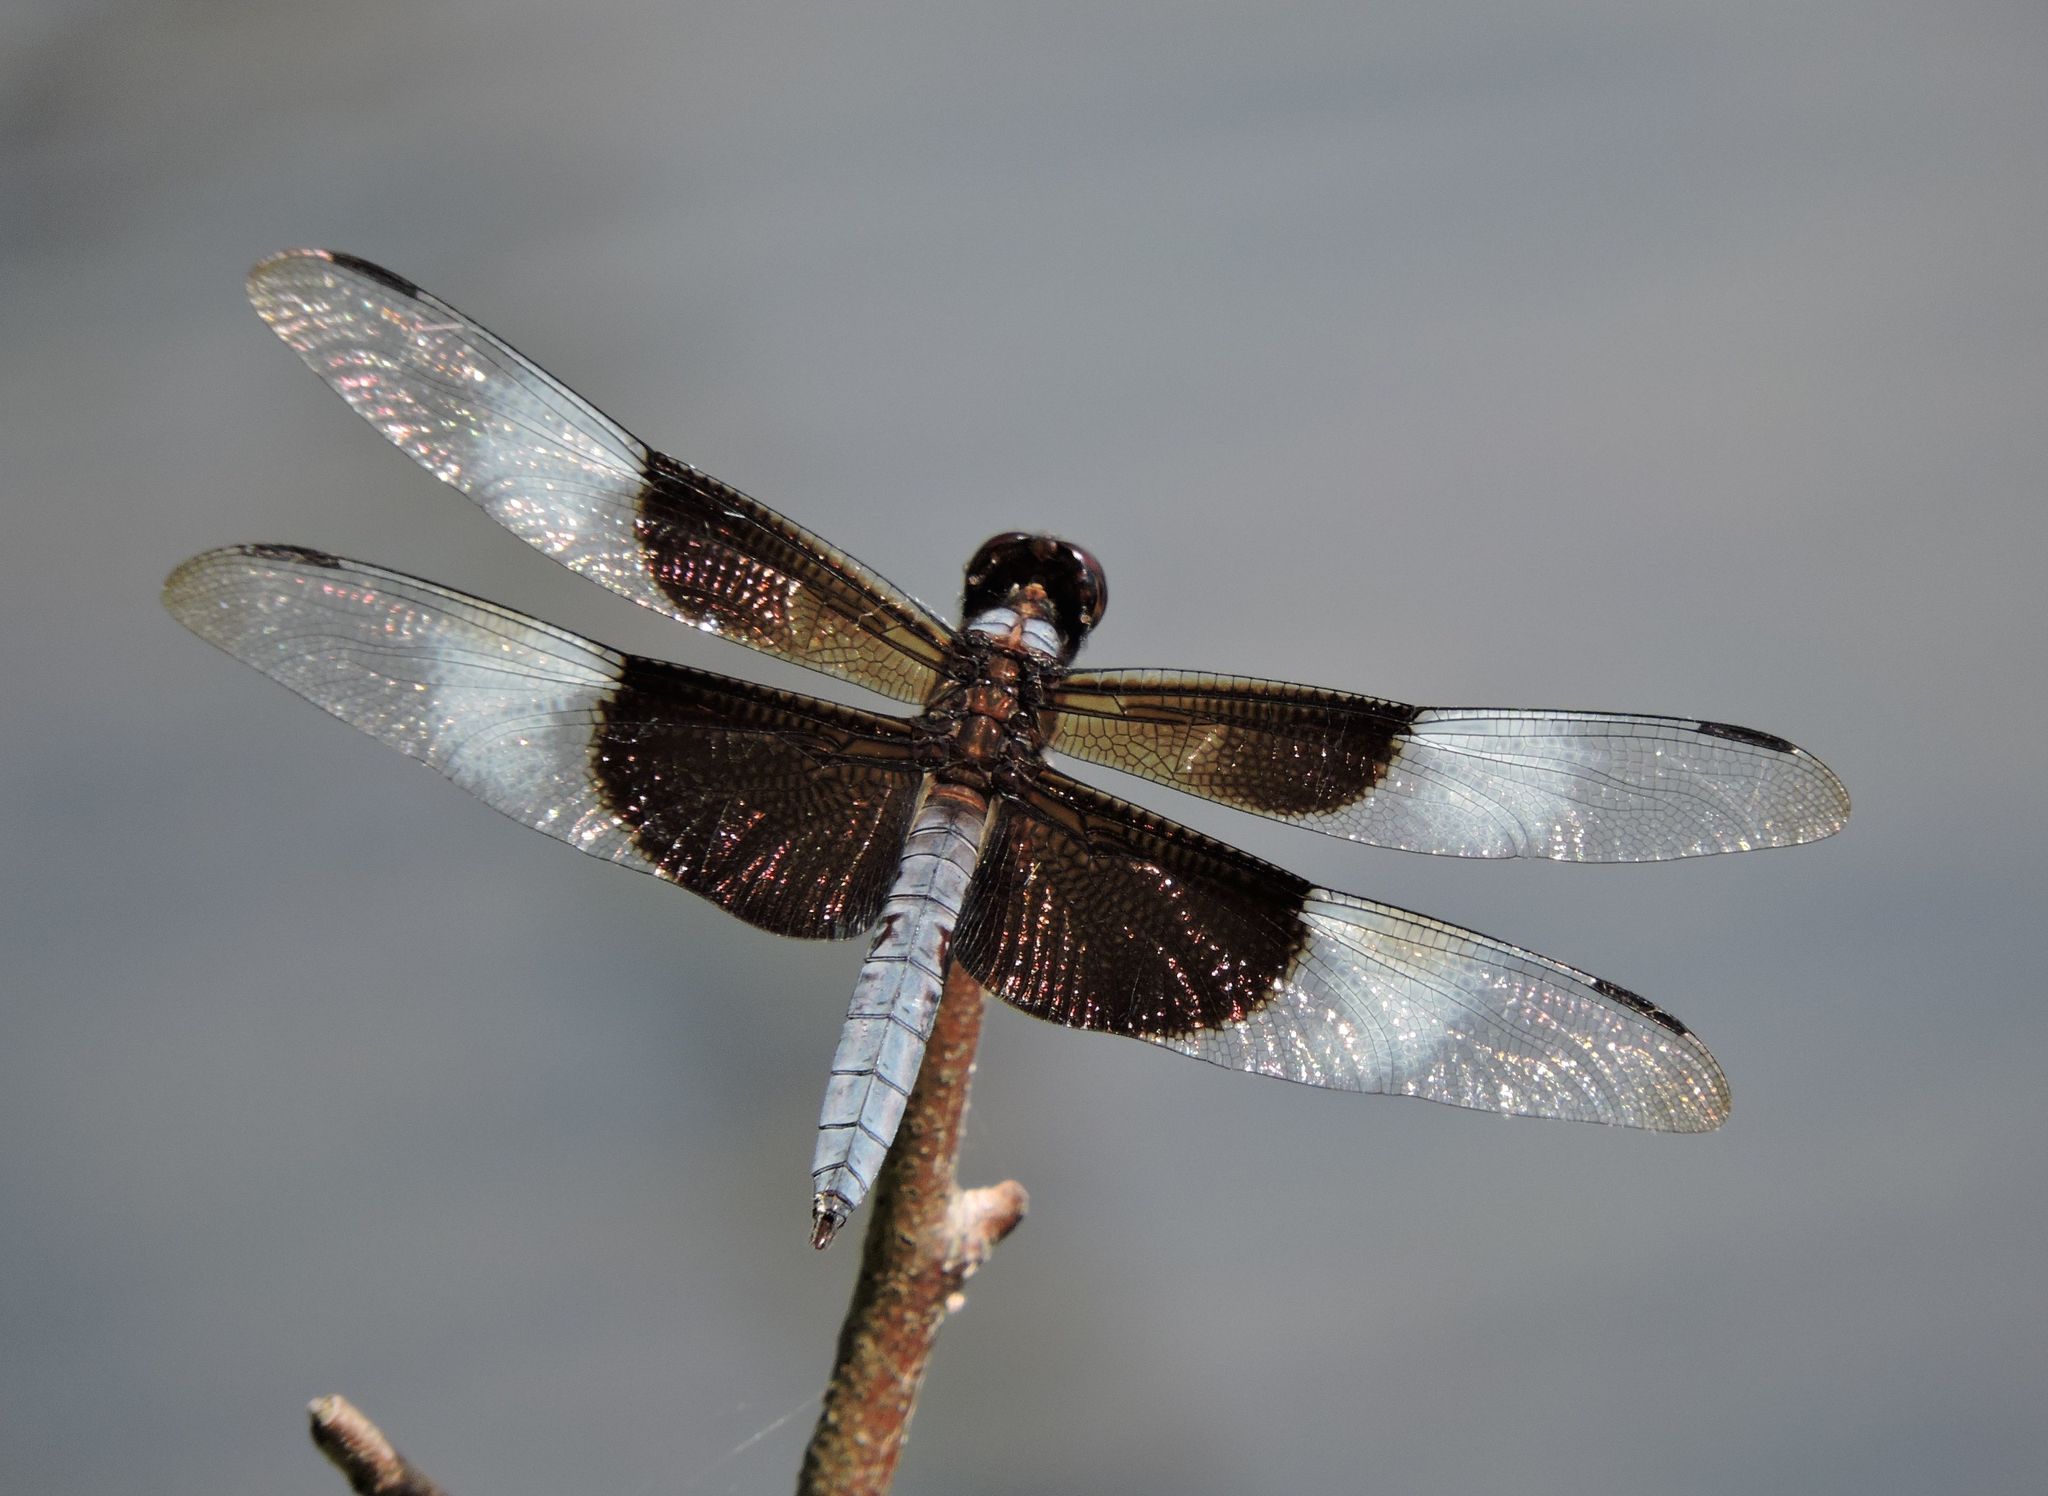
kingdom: Animalia
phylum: Arthropoda
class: Insecta
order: Odonata
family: Libellulidae
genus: Libellula
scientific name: Libellula luctuosa
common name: Widow skimmer
